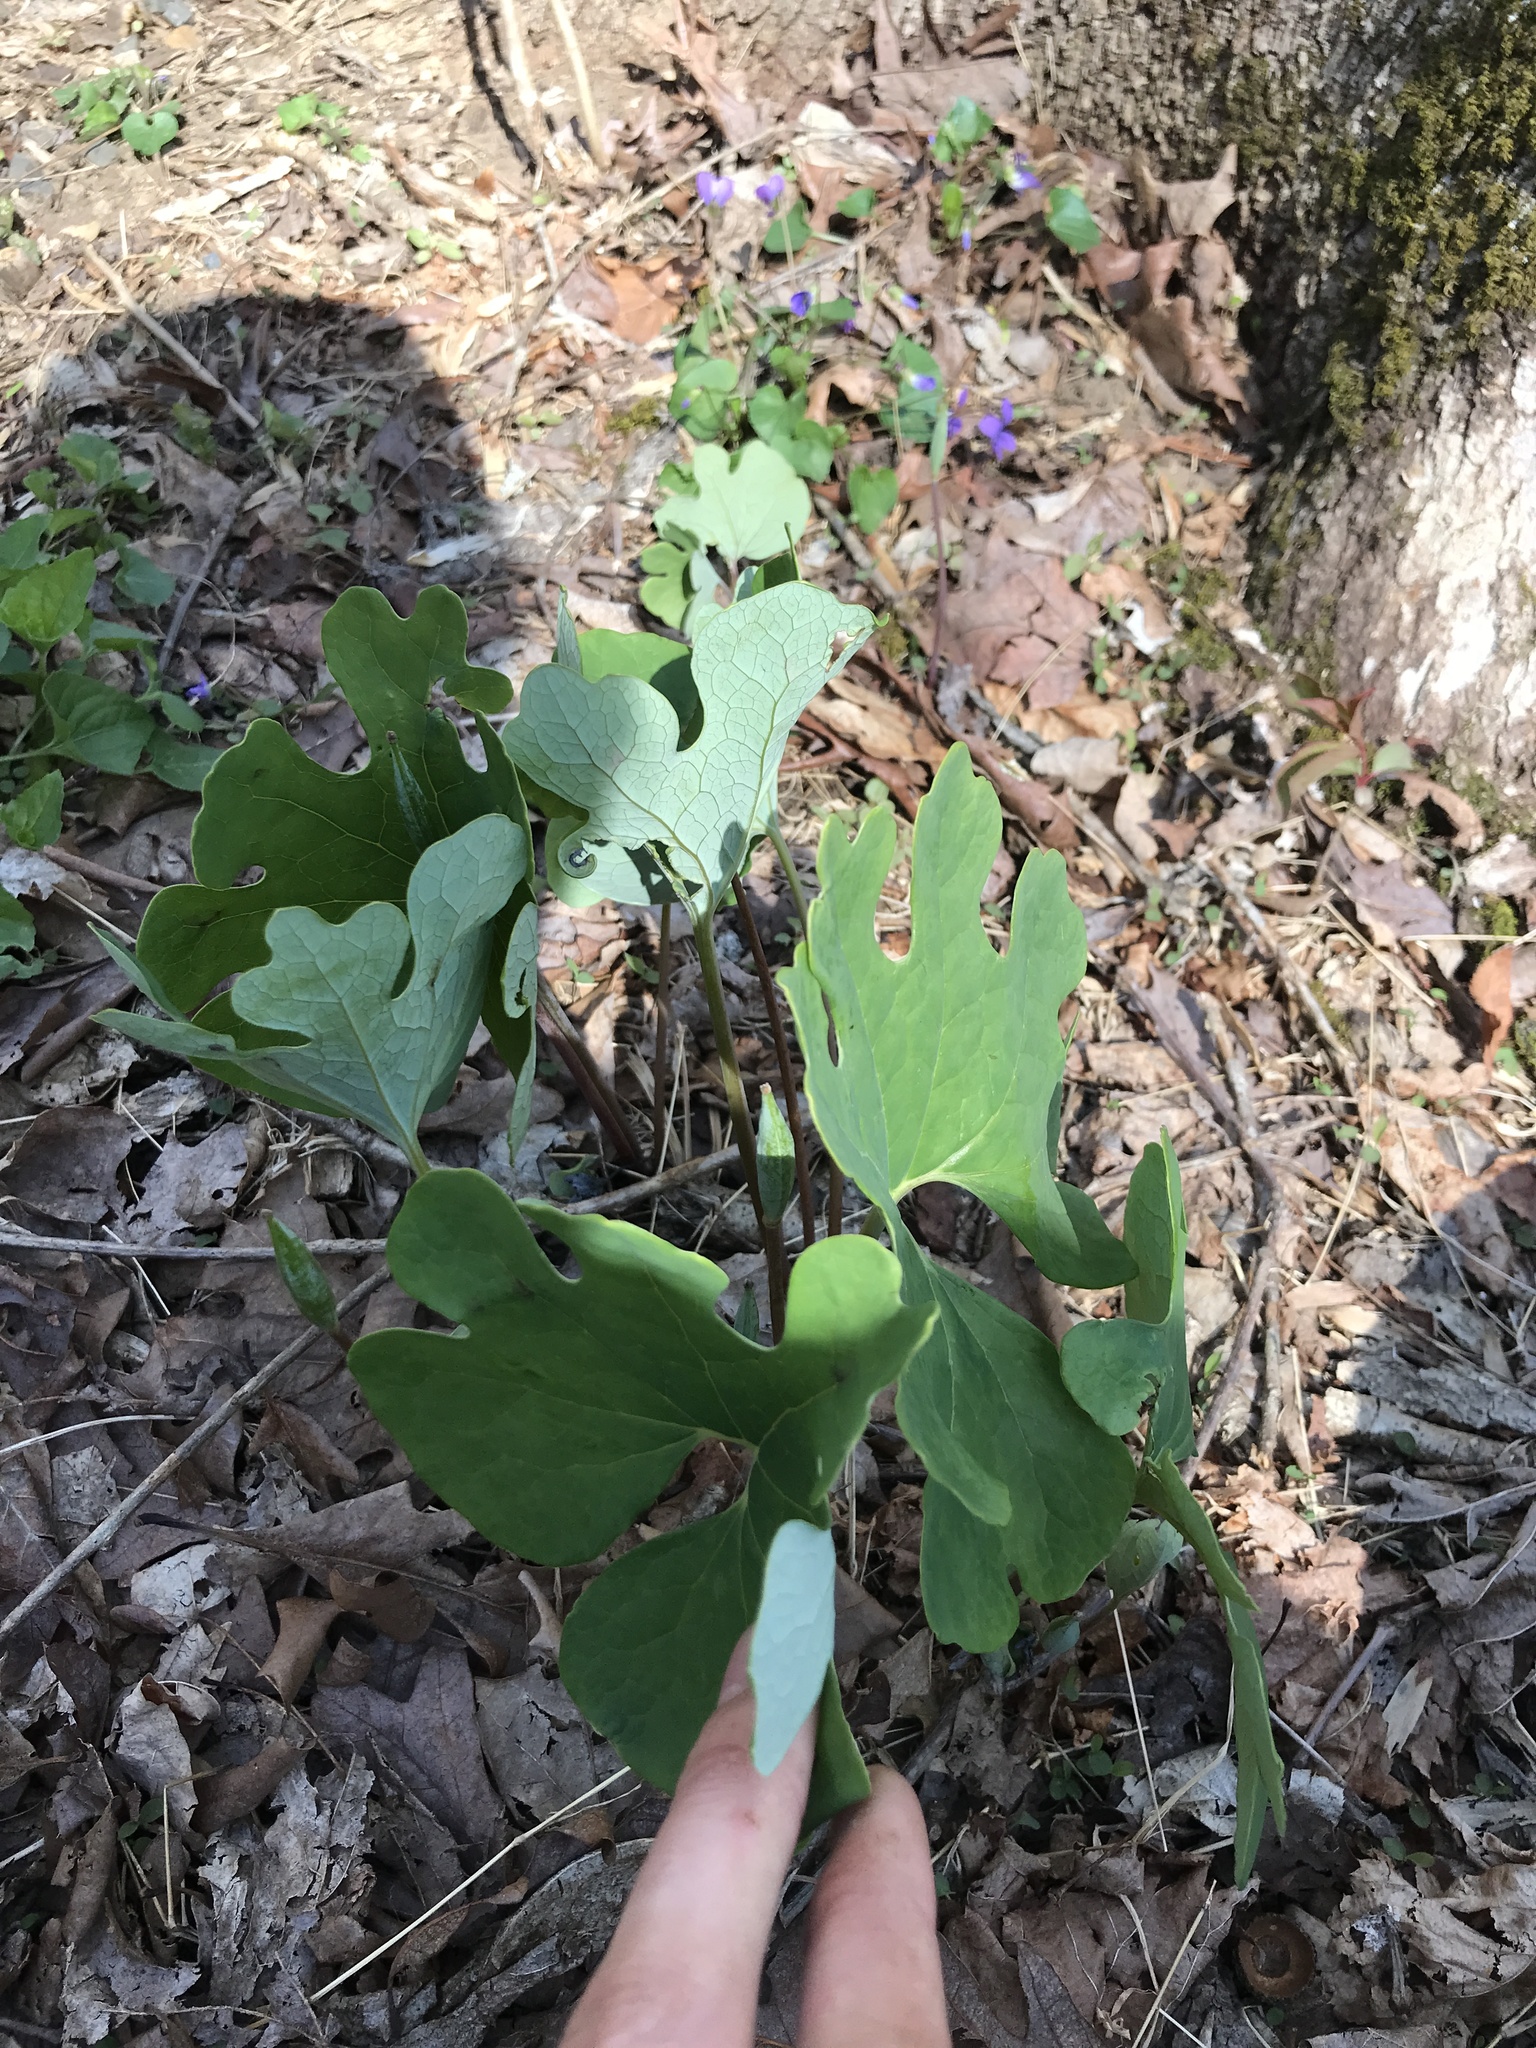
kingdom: Plantae
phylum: Tracheophyta
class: Magnoliopsida
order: Ranunculales
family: Papaveraceae
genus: Sanguinaria
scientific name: Sanguinaria canadensis
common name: Bloodroot
